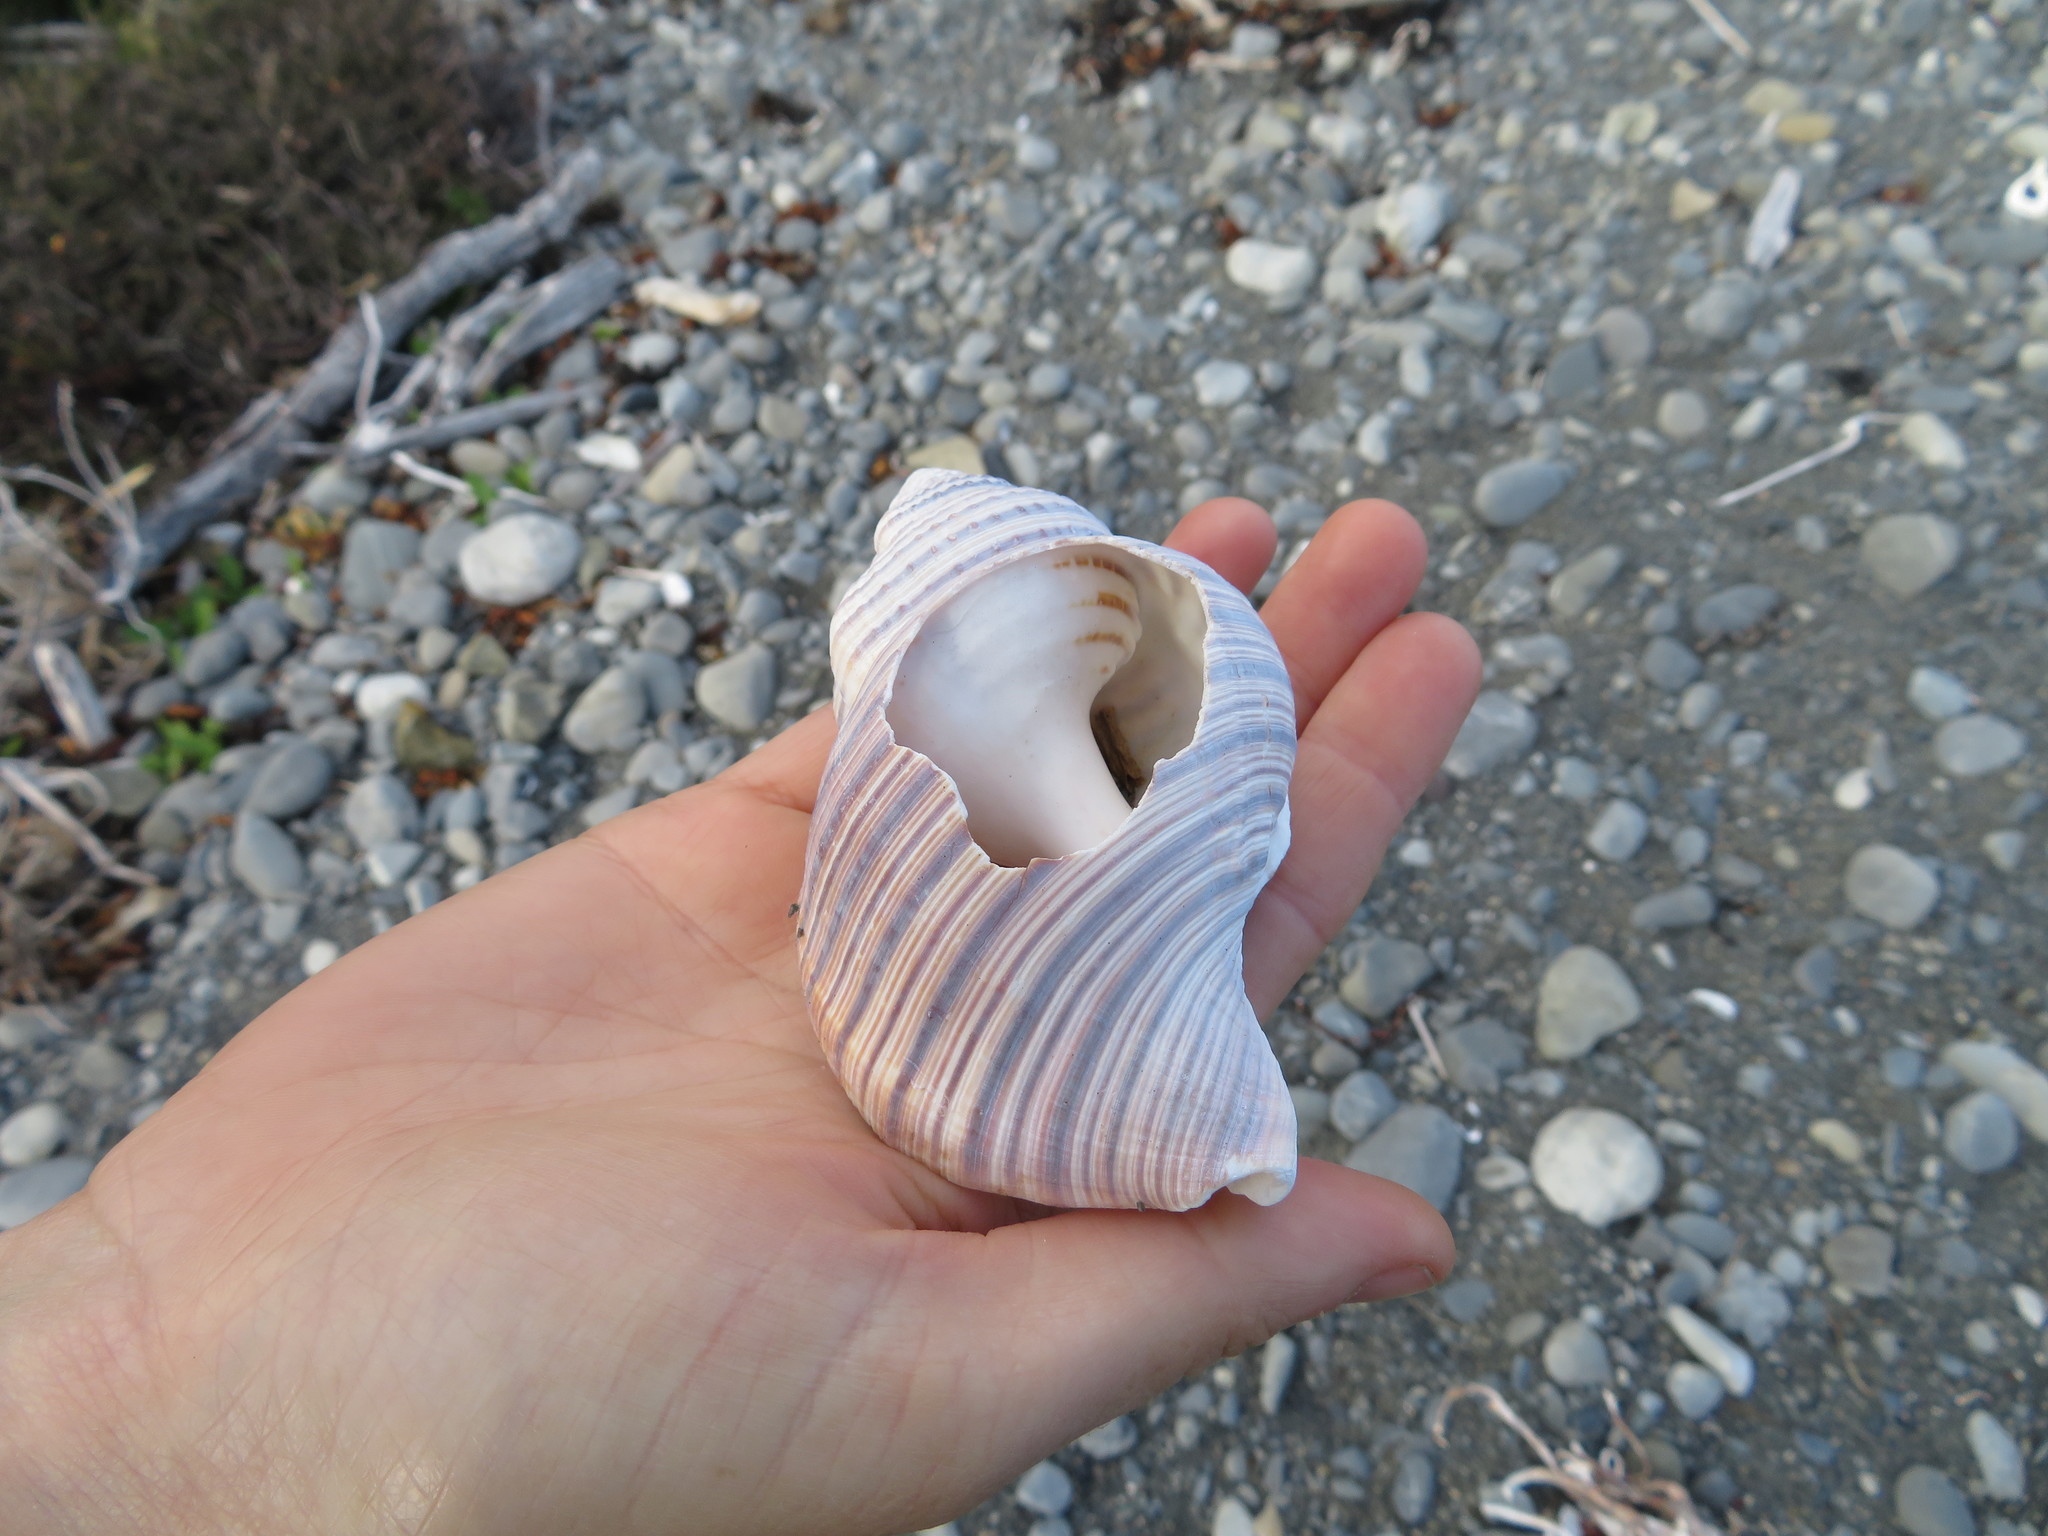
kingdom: Animalia
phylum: Mollusca
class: Gastropoda
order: Littorinimorpha
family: Cymatiidae
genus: Argobuccinum
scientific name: Argobuccinum pustulosum
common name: Pustular triton
